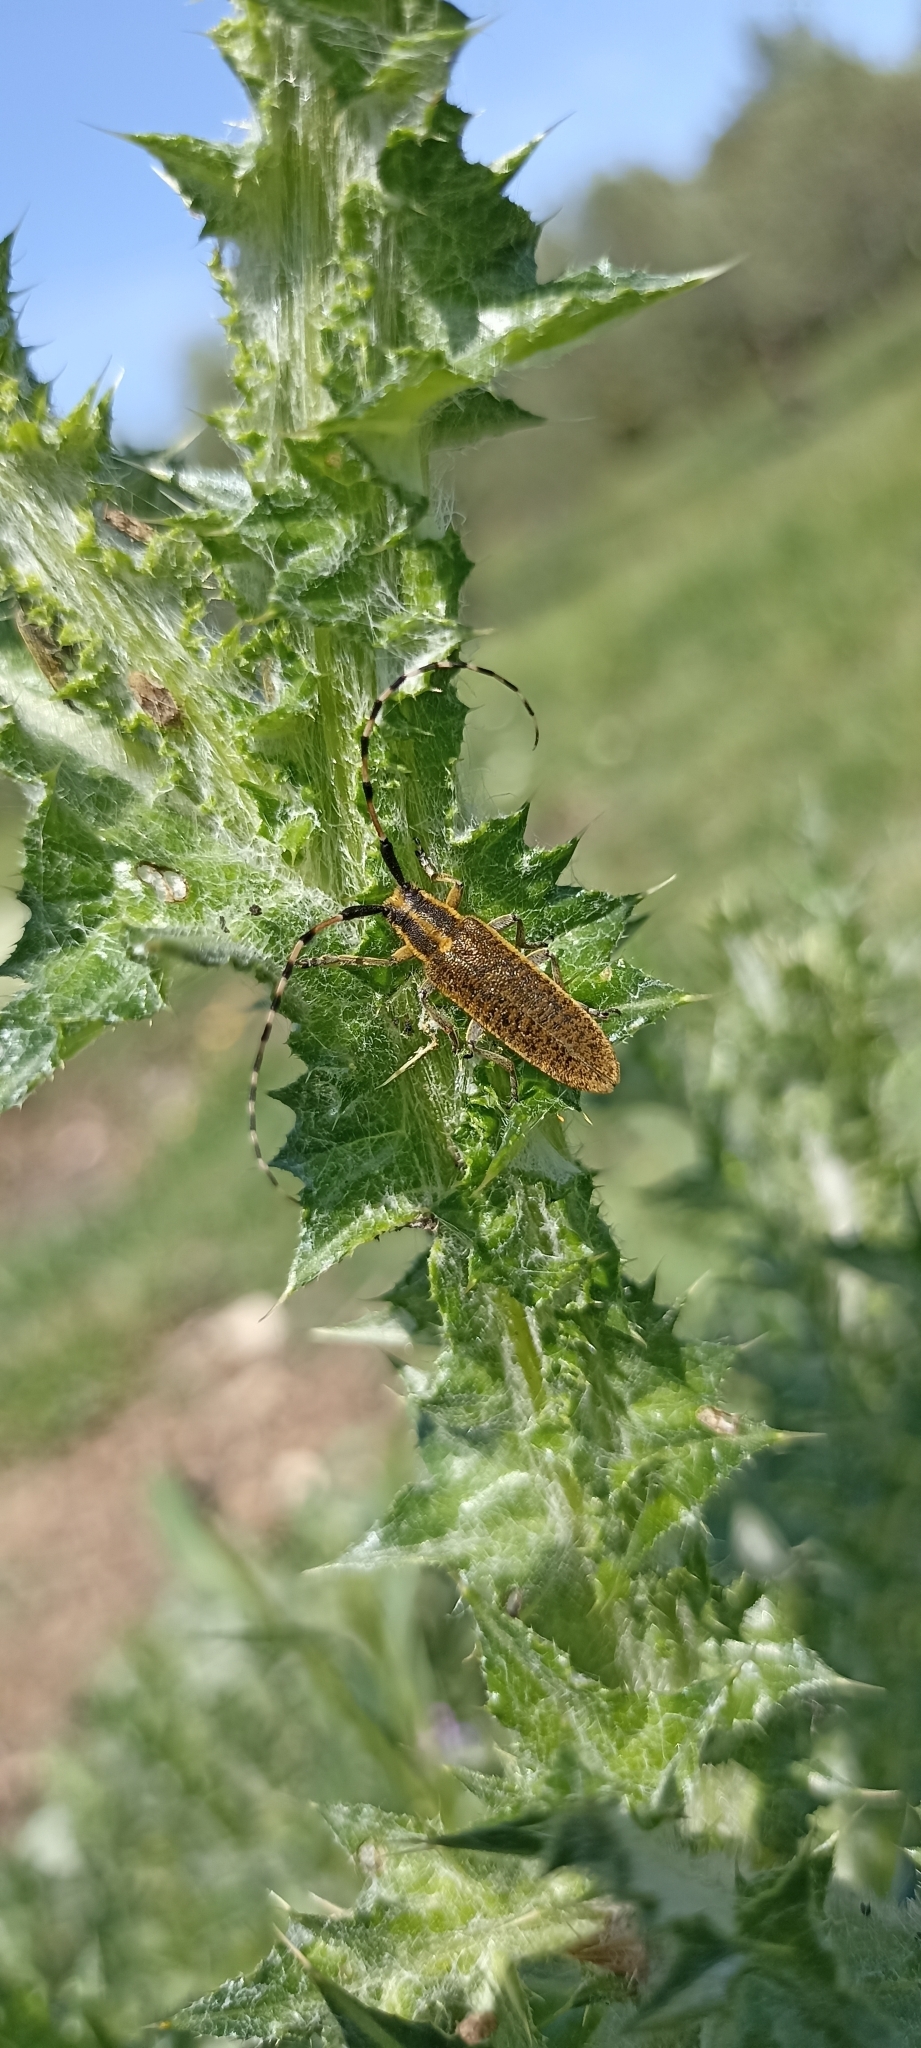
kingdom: Animalia
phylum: Arthropoda
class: Insecta
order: Coleoptera
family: Cerambycidae
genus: Agapanthia
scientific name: Agapanthia dahlii
